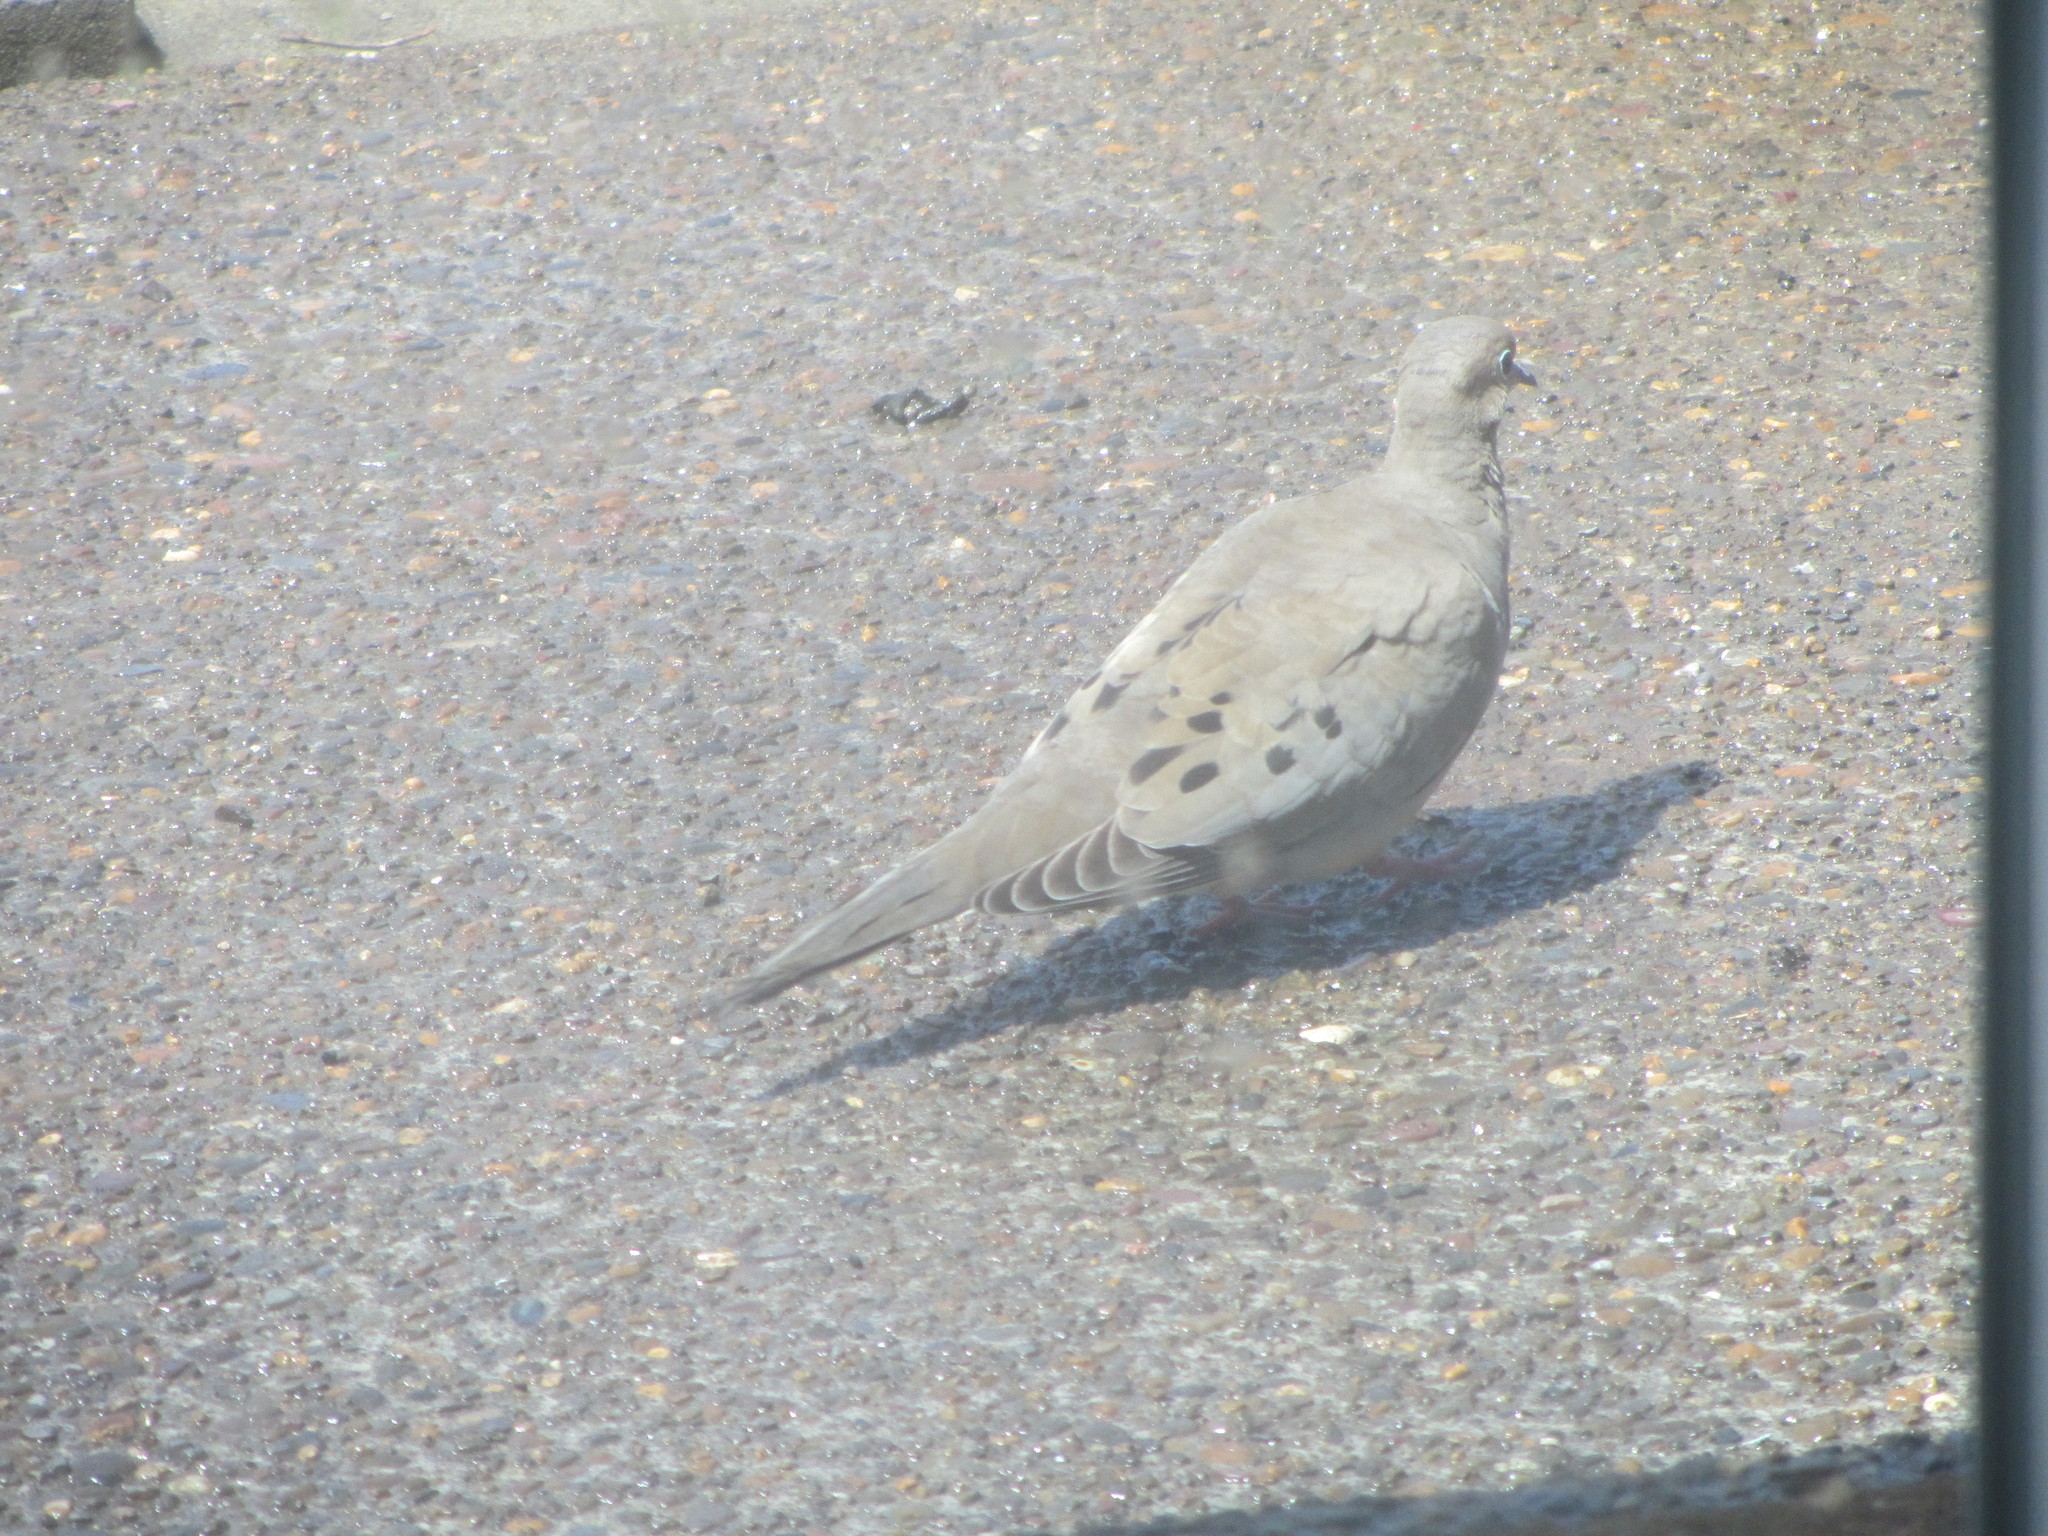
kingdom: Animalia
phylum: Chordata
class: Aves
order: Columbiformes
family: Columbidae
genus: Zenaida
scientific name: Zenaida macroura
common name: Mourning dove
